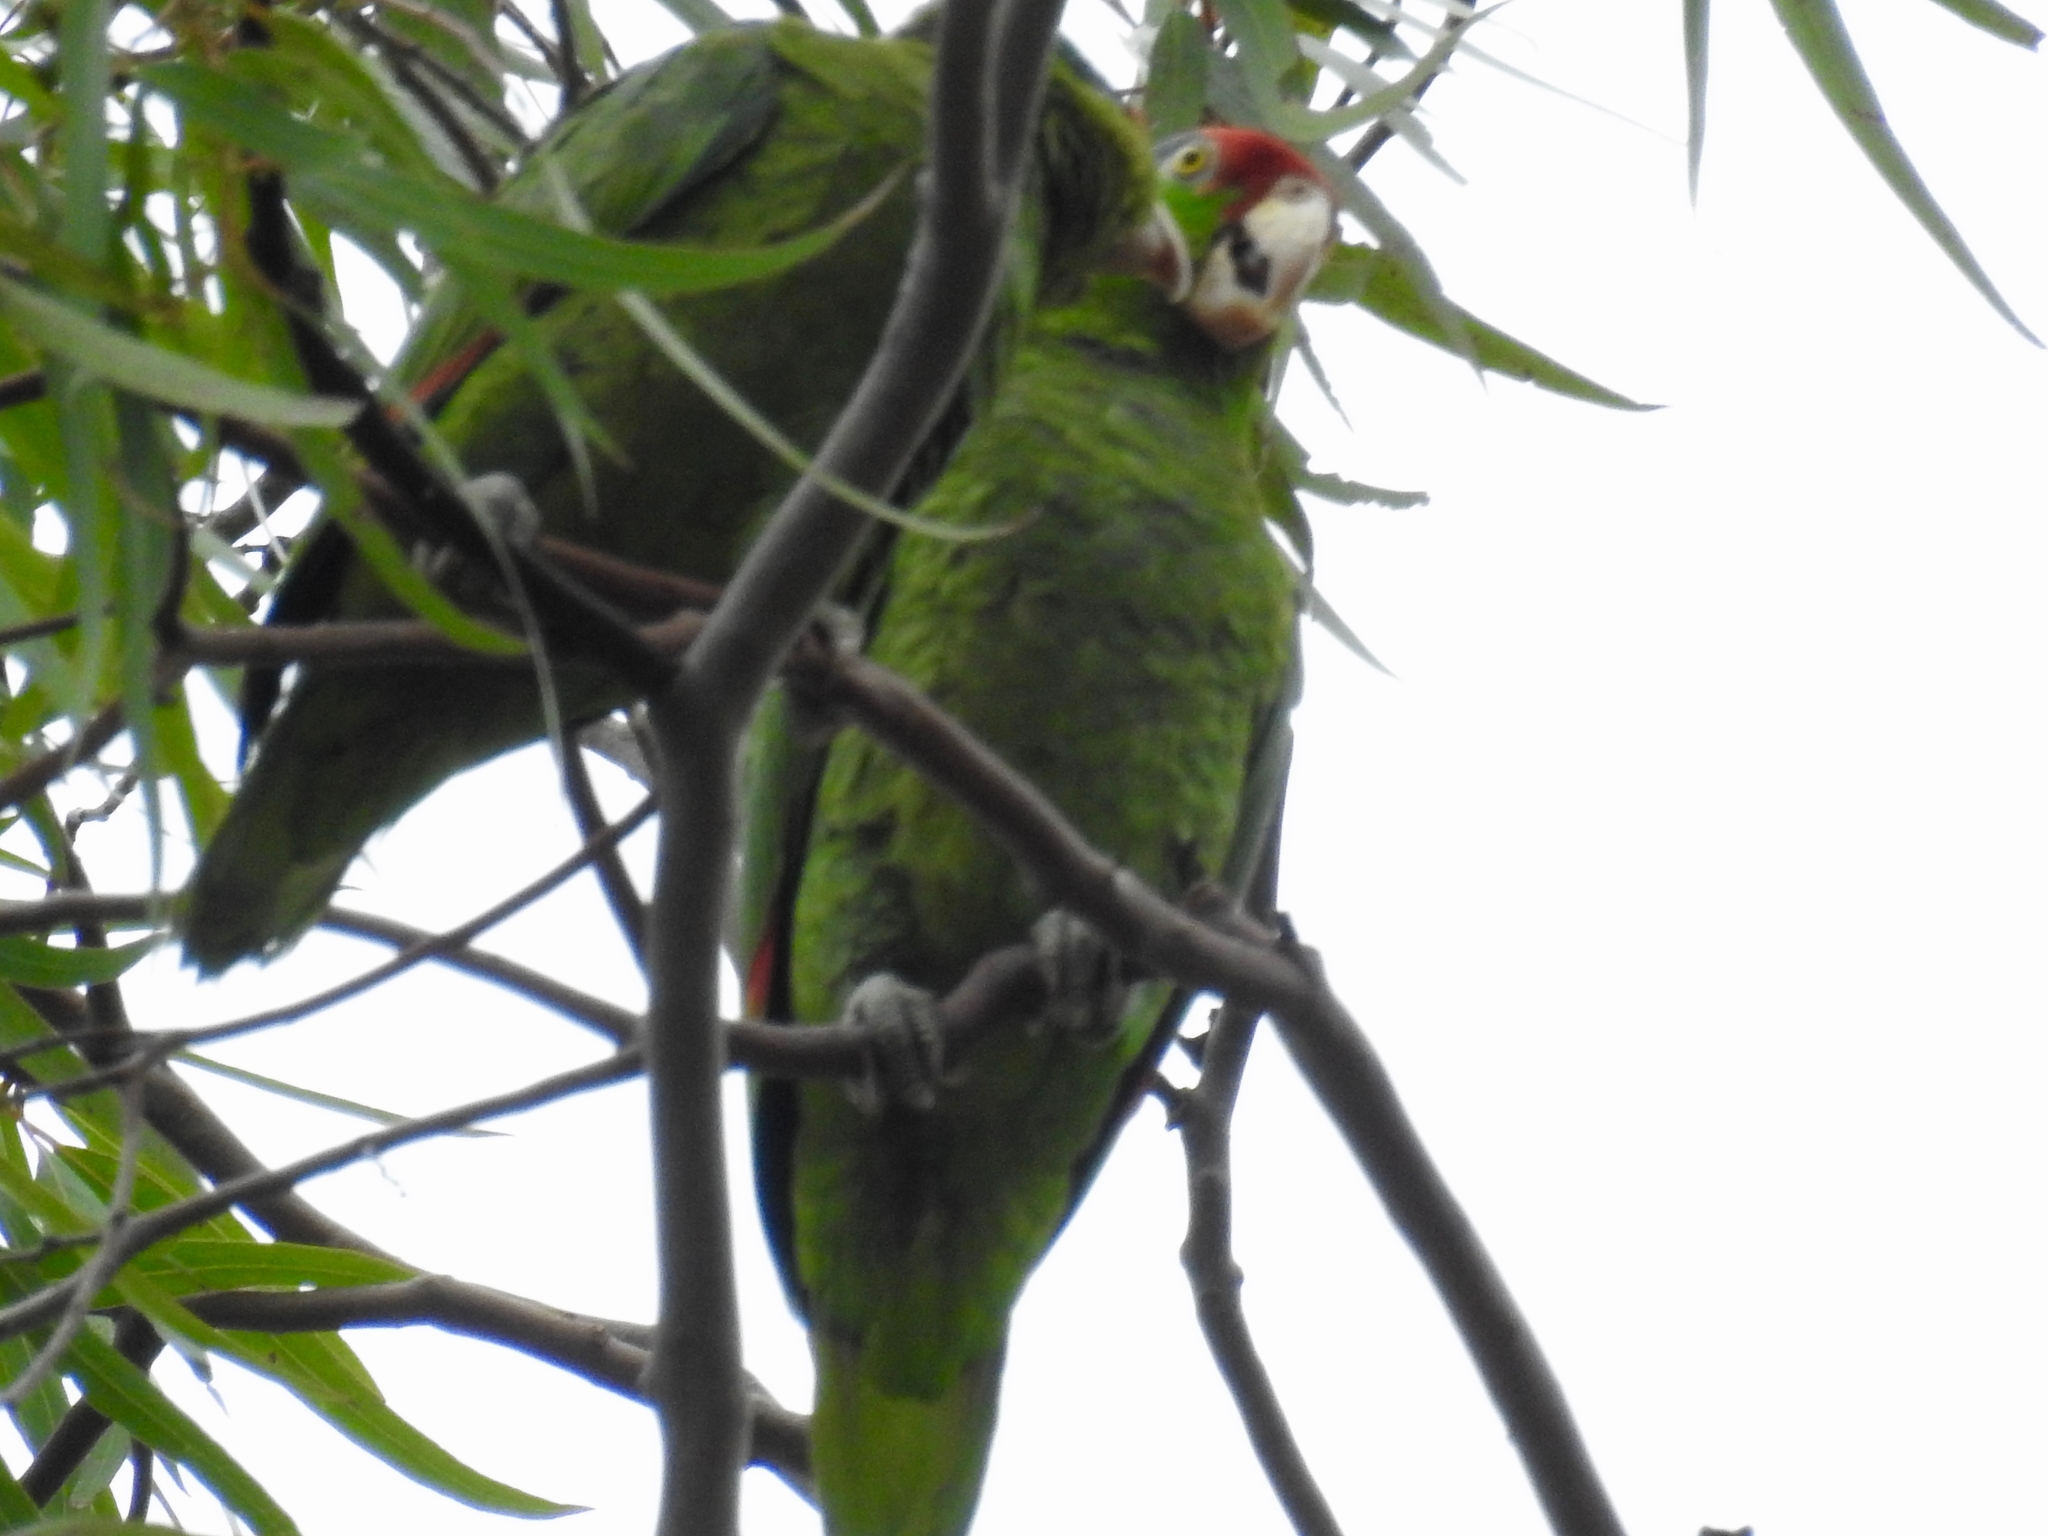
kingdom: Animalia
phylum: Chordata
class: Aves
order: Psittaciformes
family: Psittacidae
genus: Amazona
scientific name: Amazona viridigenalis
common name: Red-crowned amazon
